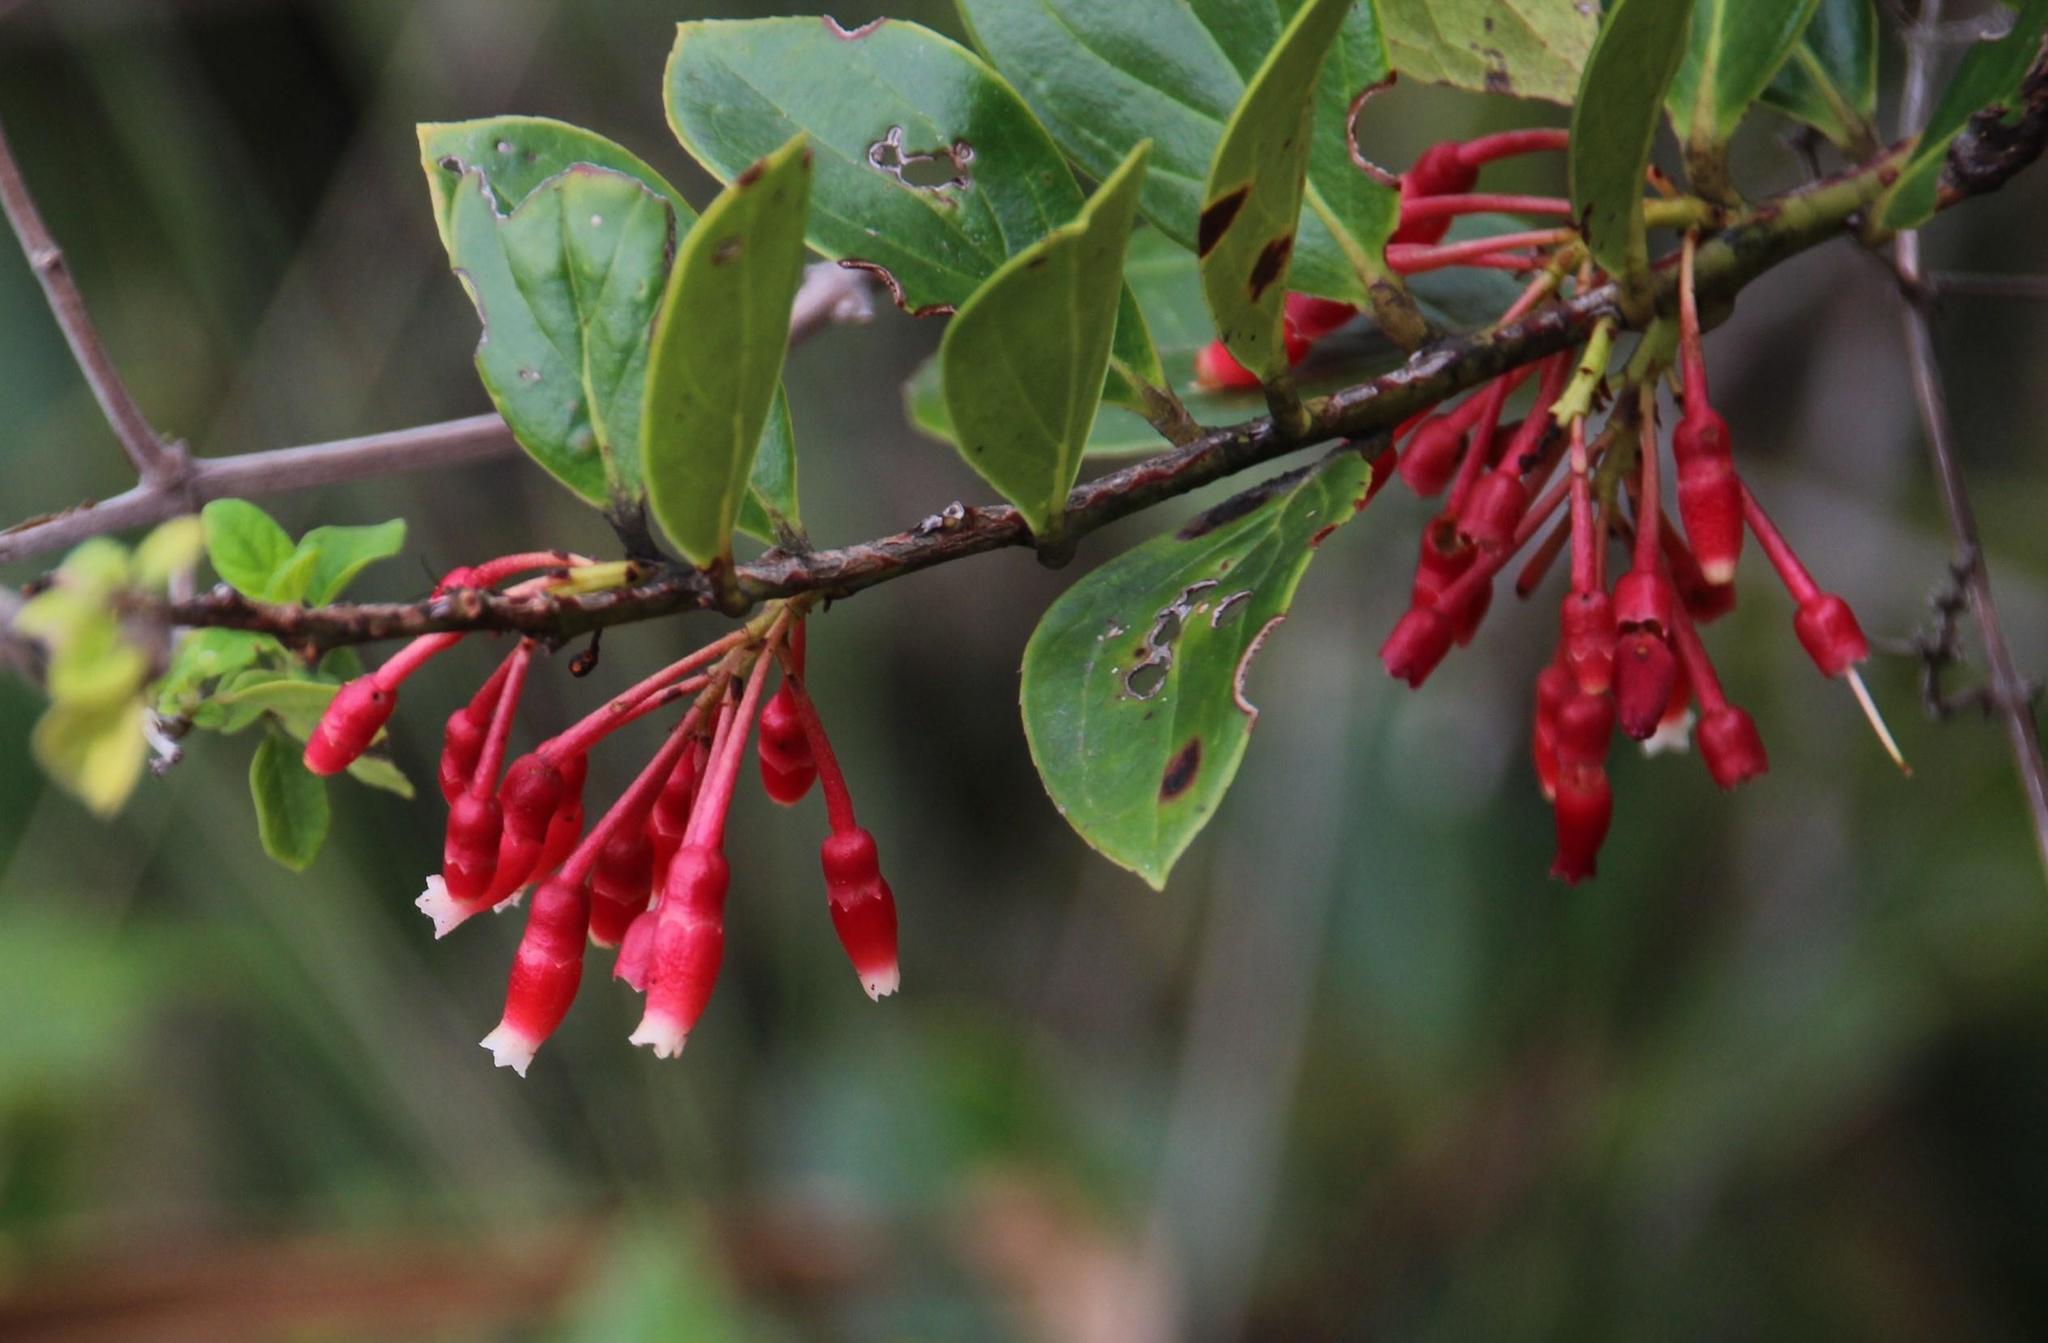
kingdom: Plantae
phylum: Tracheophyta
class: Magnoliopsida
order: Ericales
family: Ericaceae
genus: Thibaudia
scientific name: Thibaudia diphylla
